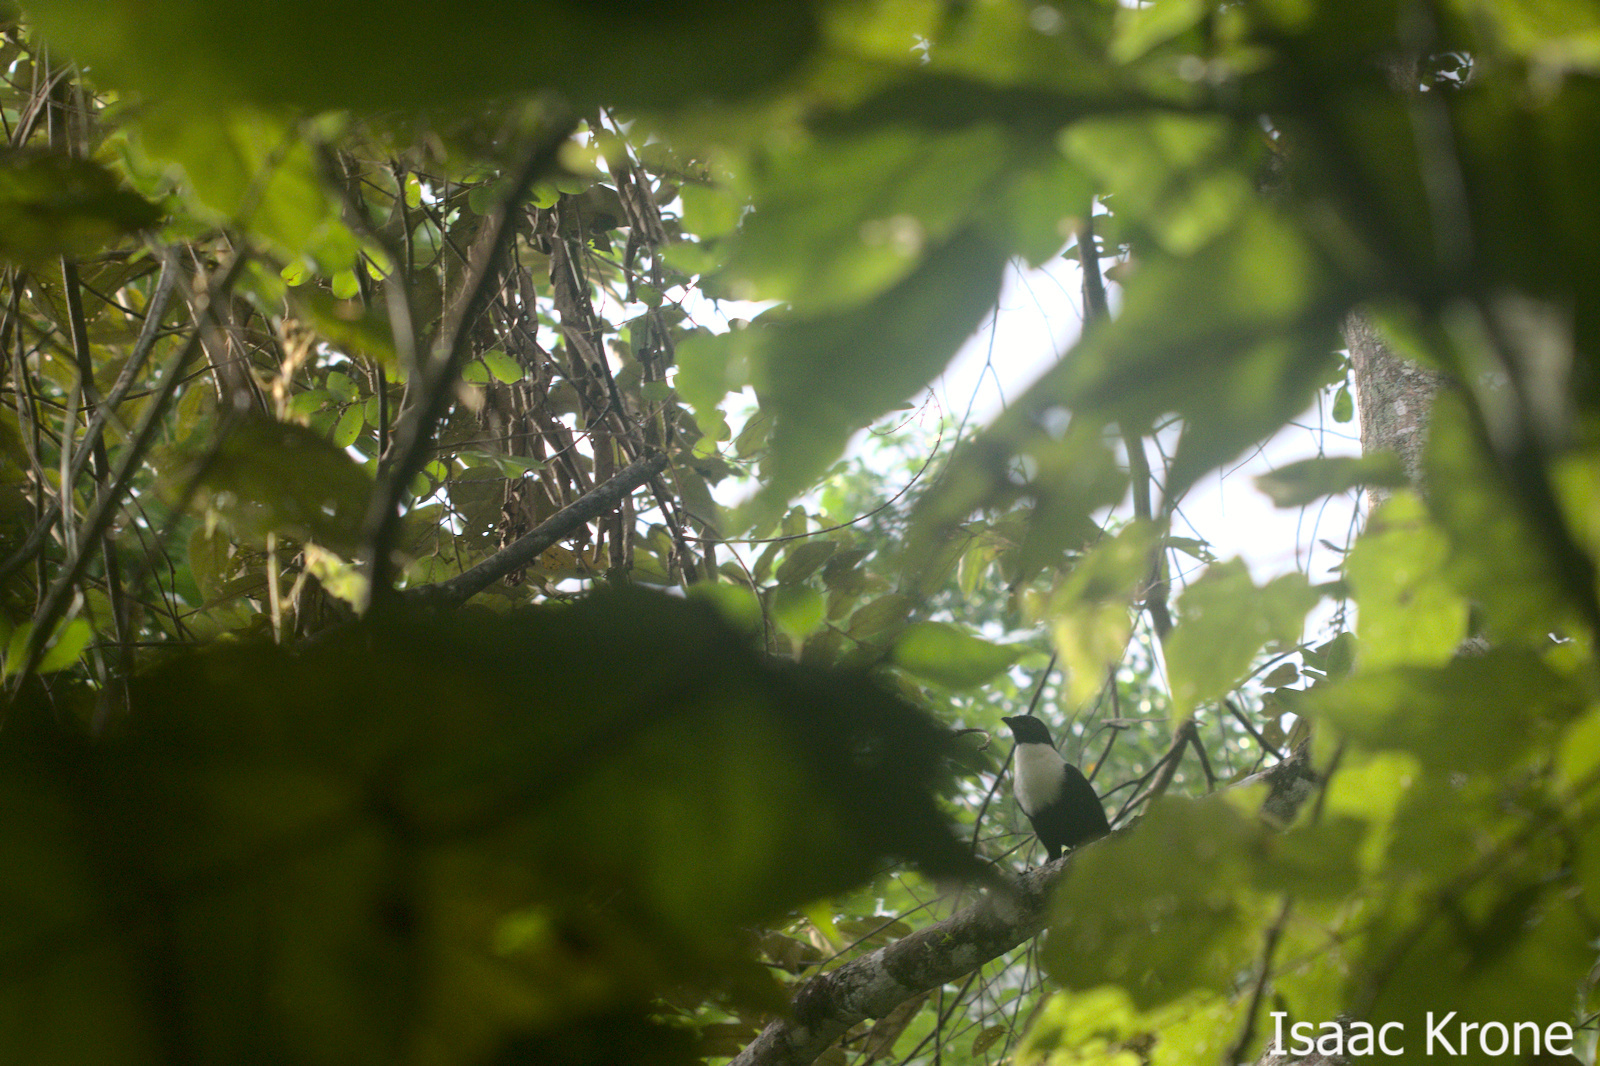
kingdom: Animalia
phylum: Chordata
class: Aves
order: Passeriformes
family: Sturnidae
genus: Streptocitta
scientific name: Streptocitta albicollis
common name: White-necked myna
